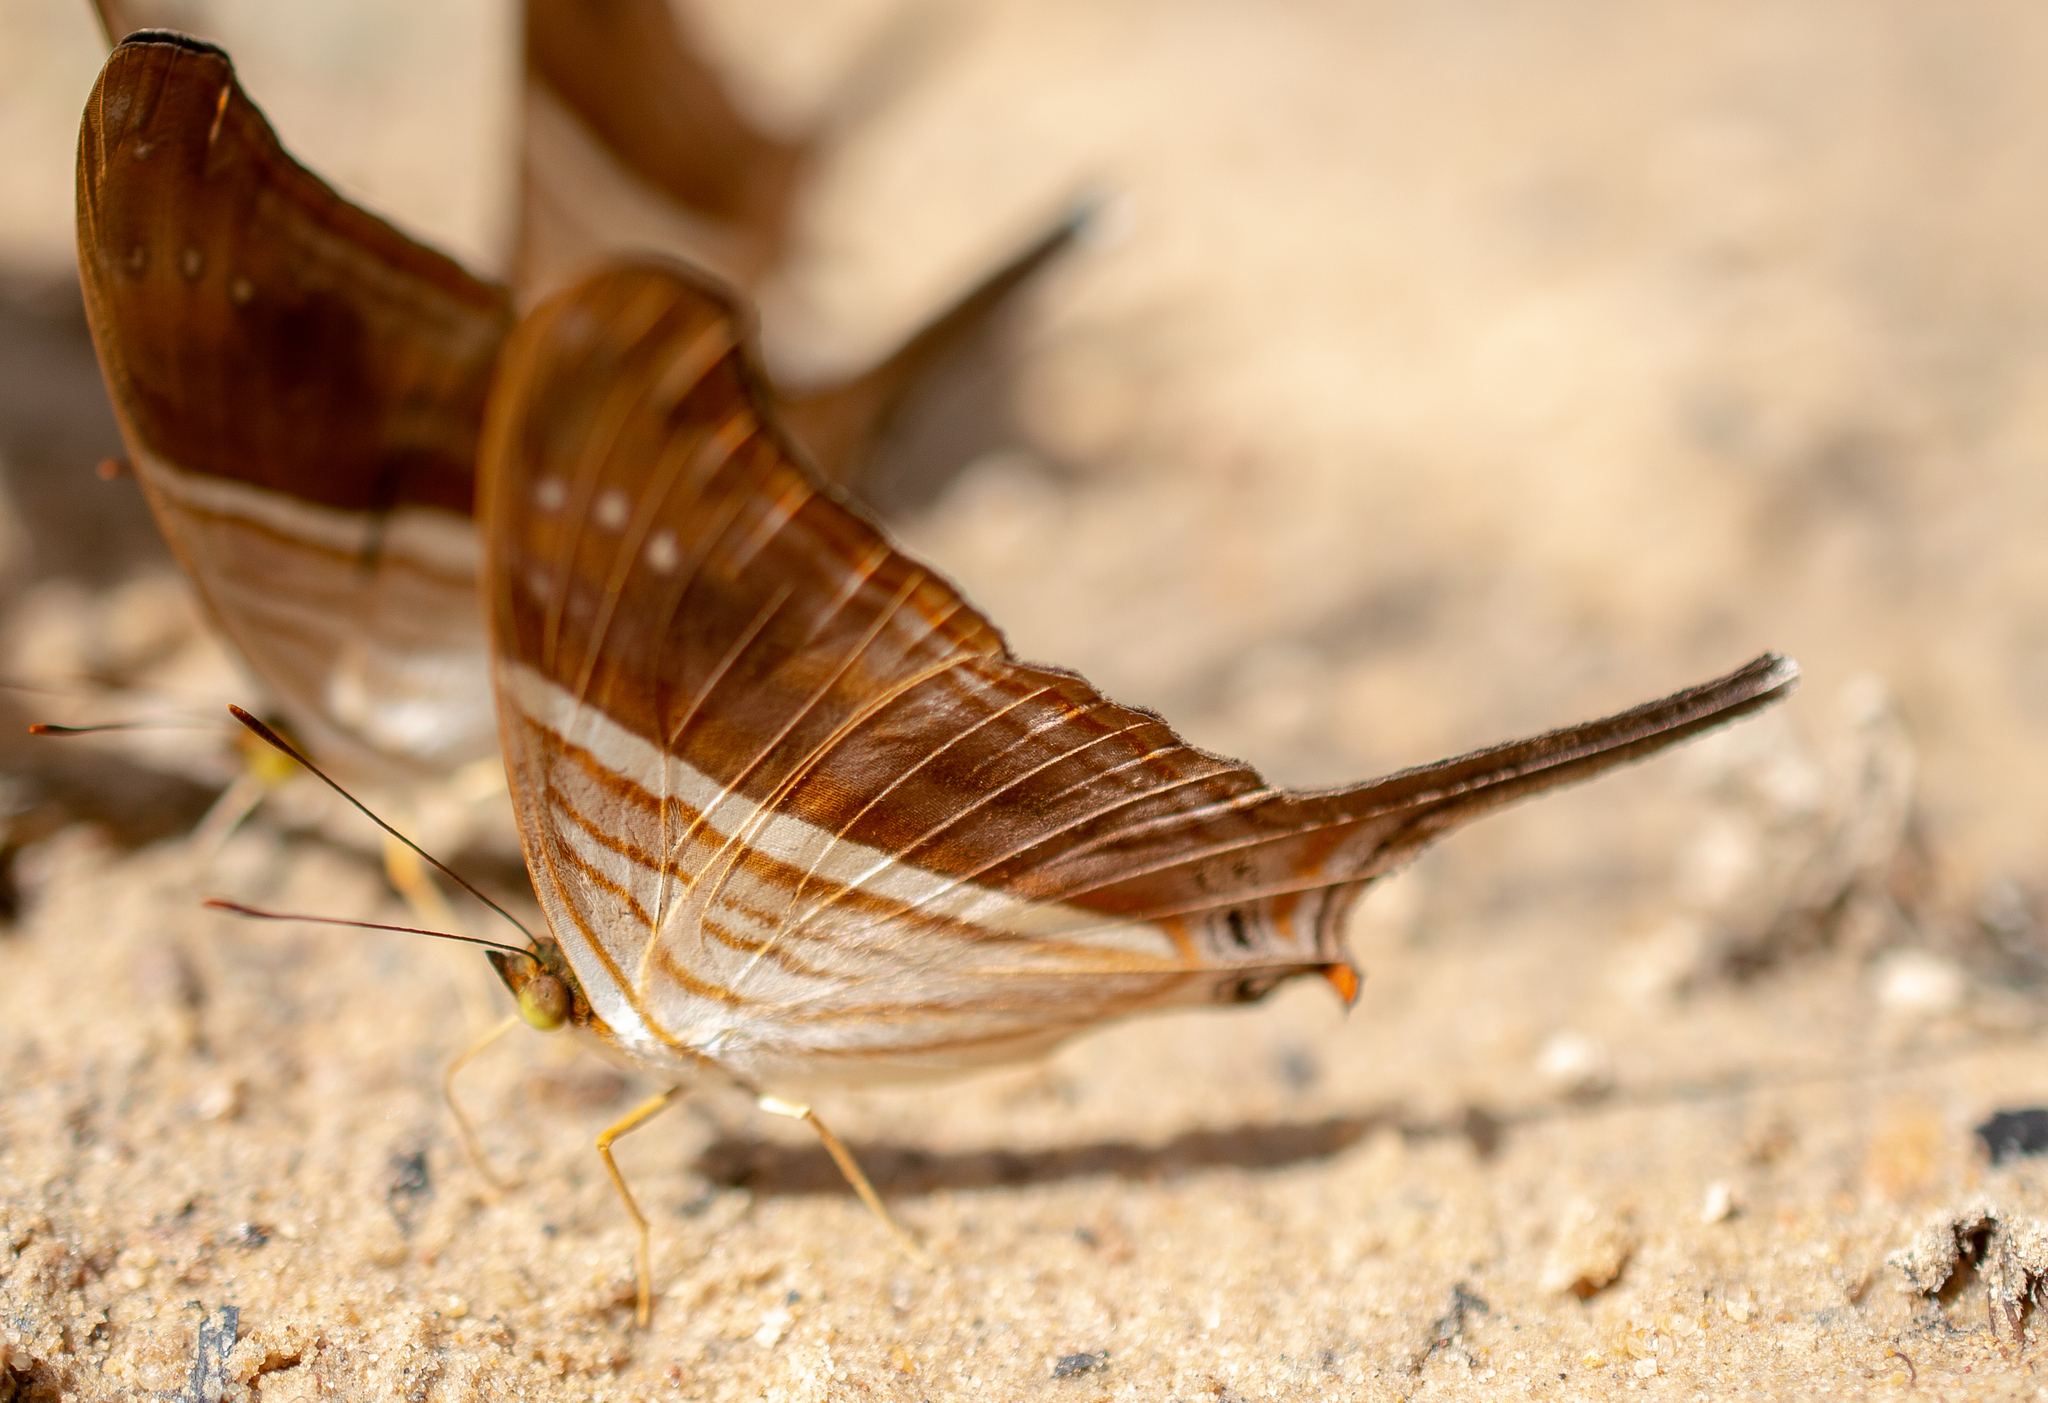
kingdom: Animalia
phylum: Arthropoda
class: Insecta
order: Lepidoptera
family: Nymphalidae
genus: Marpesia
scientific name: Marpesia chiron
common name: Many-banded daggerwing
